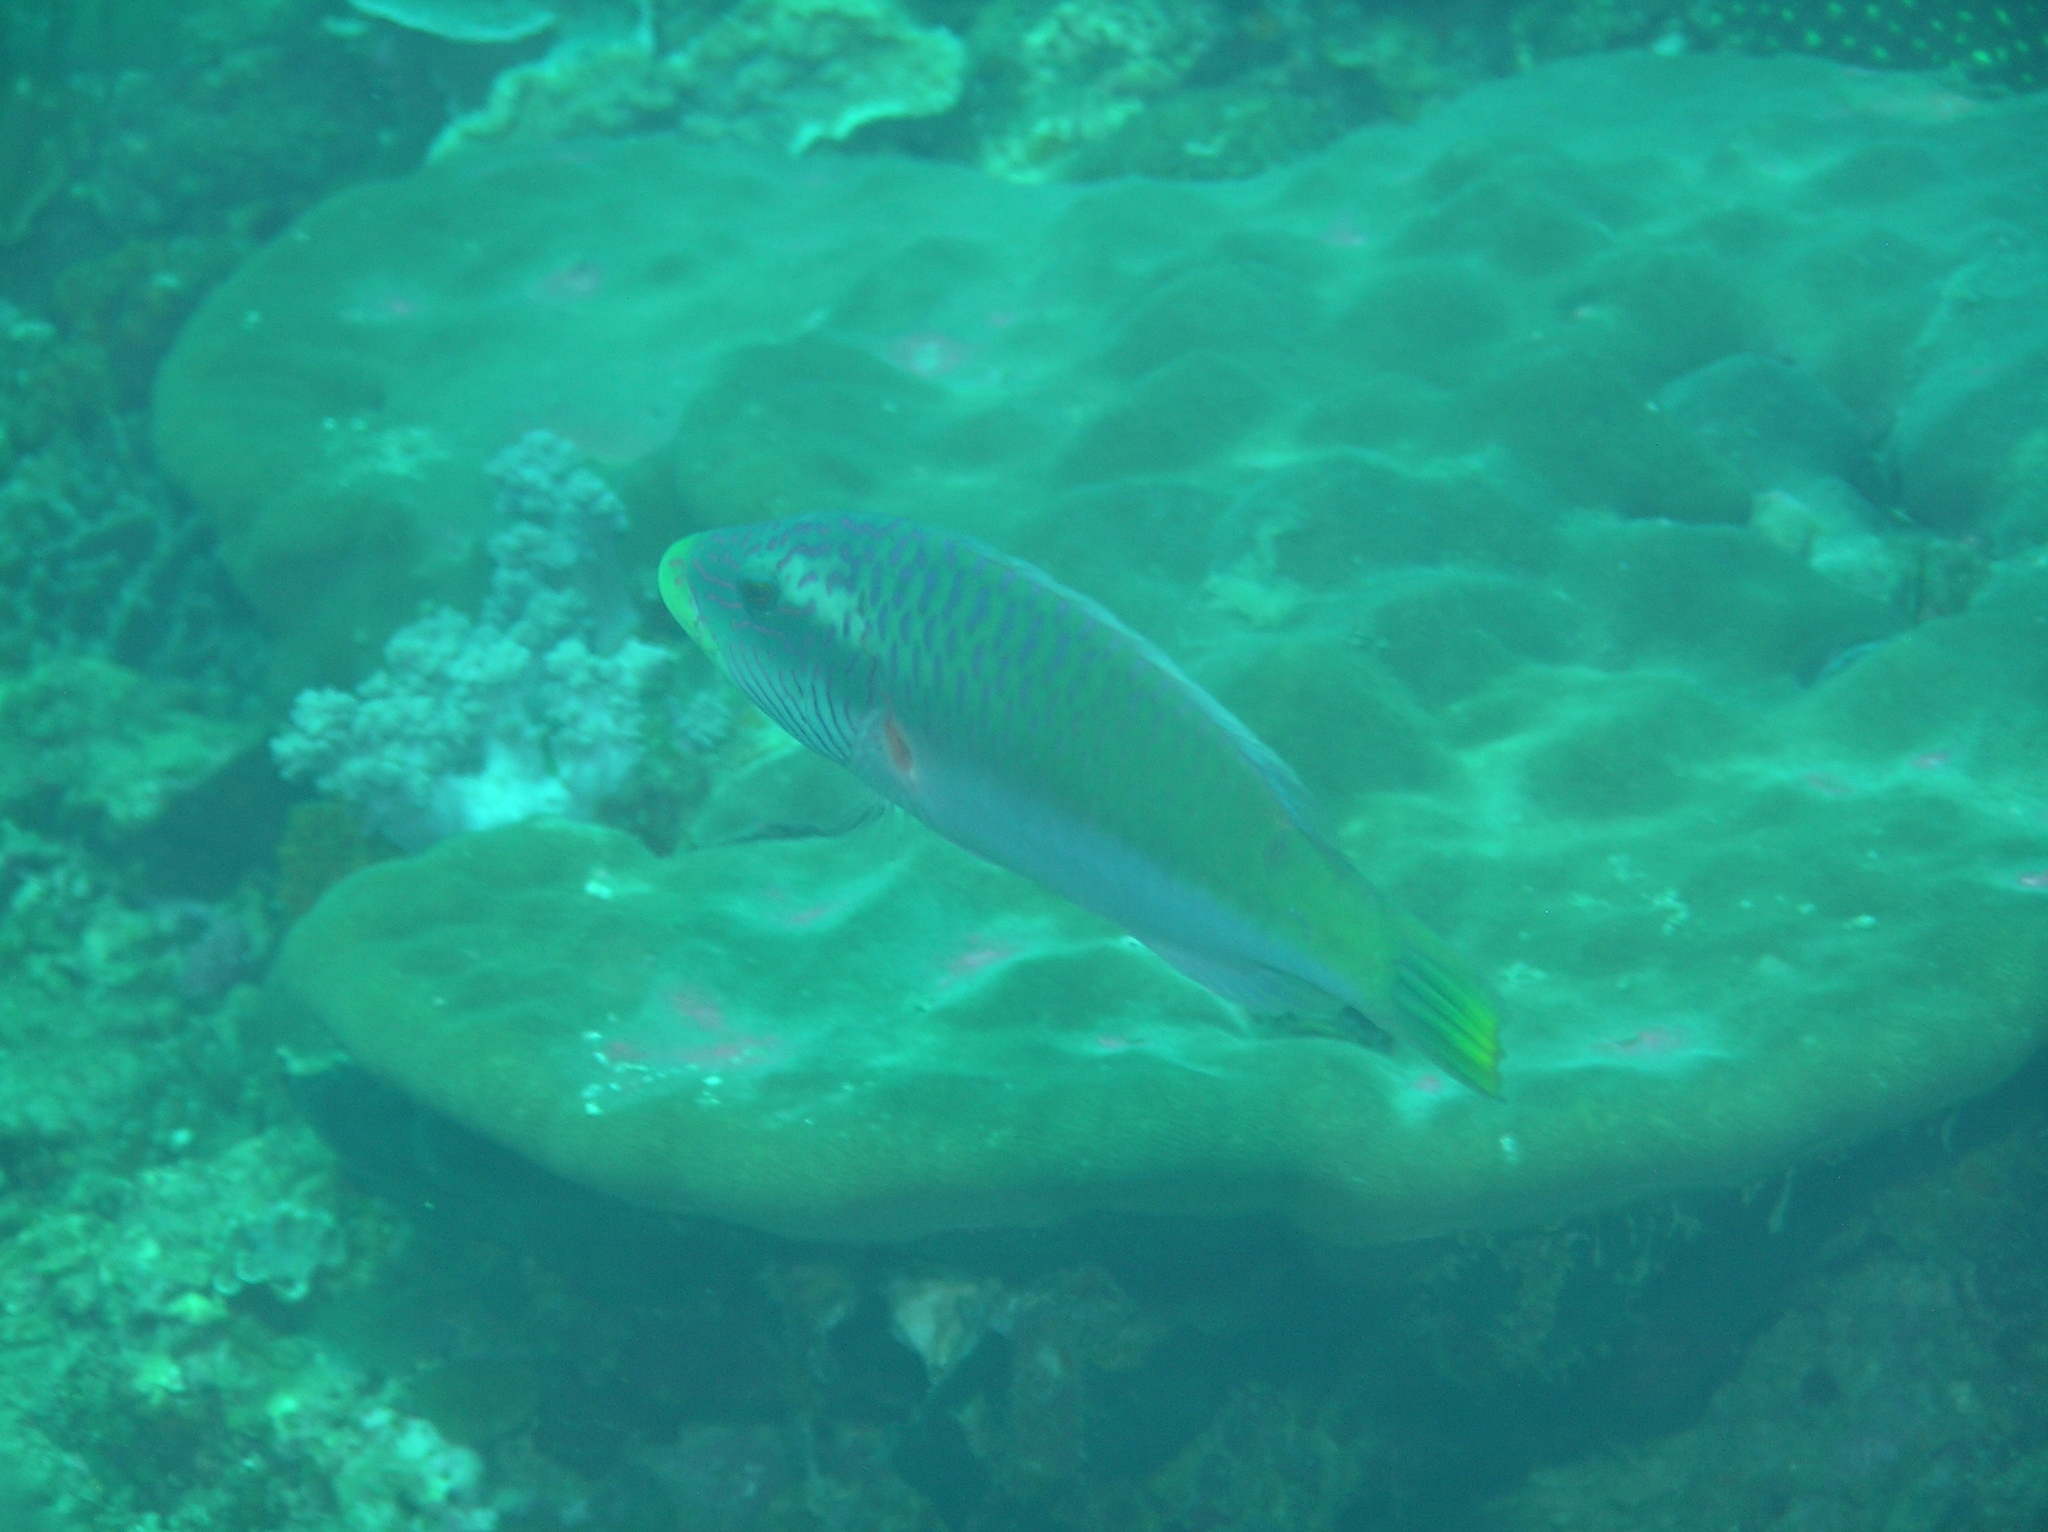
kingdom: Animalia
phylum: Chordata
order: Perciformes
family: Labridae
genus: Oxycheilinus
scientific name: Oxycheilinus digramma
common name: Bandcheek wrasse
